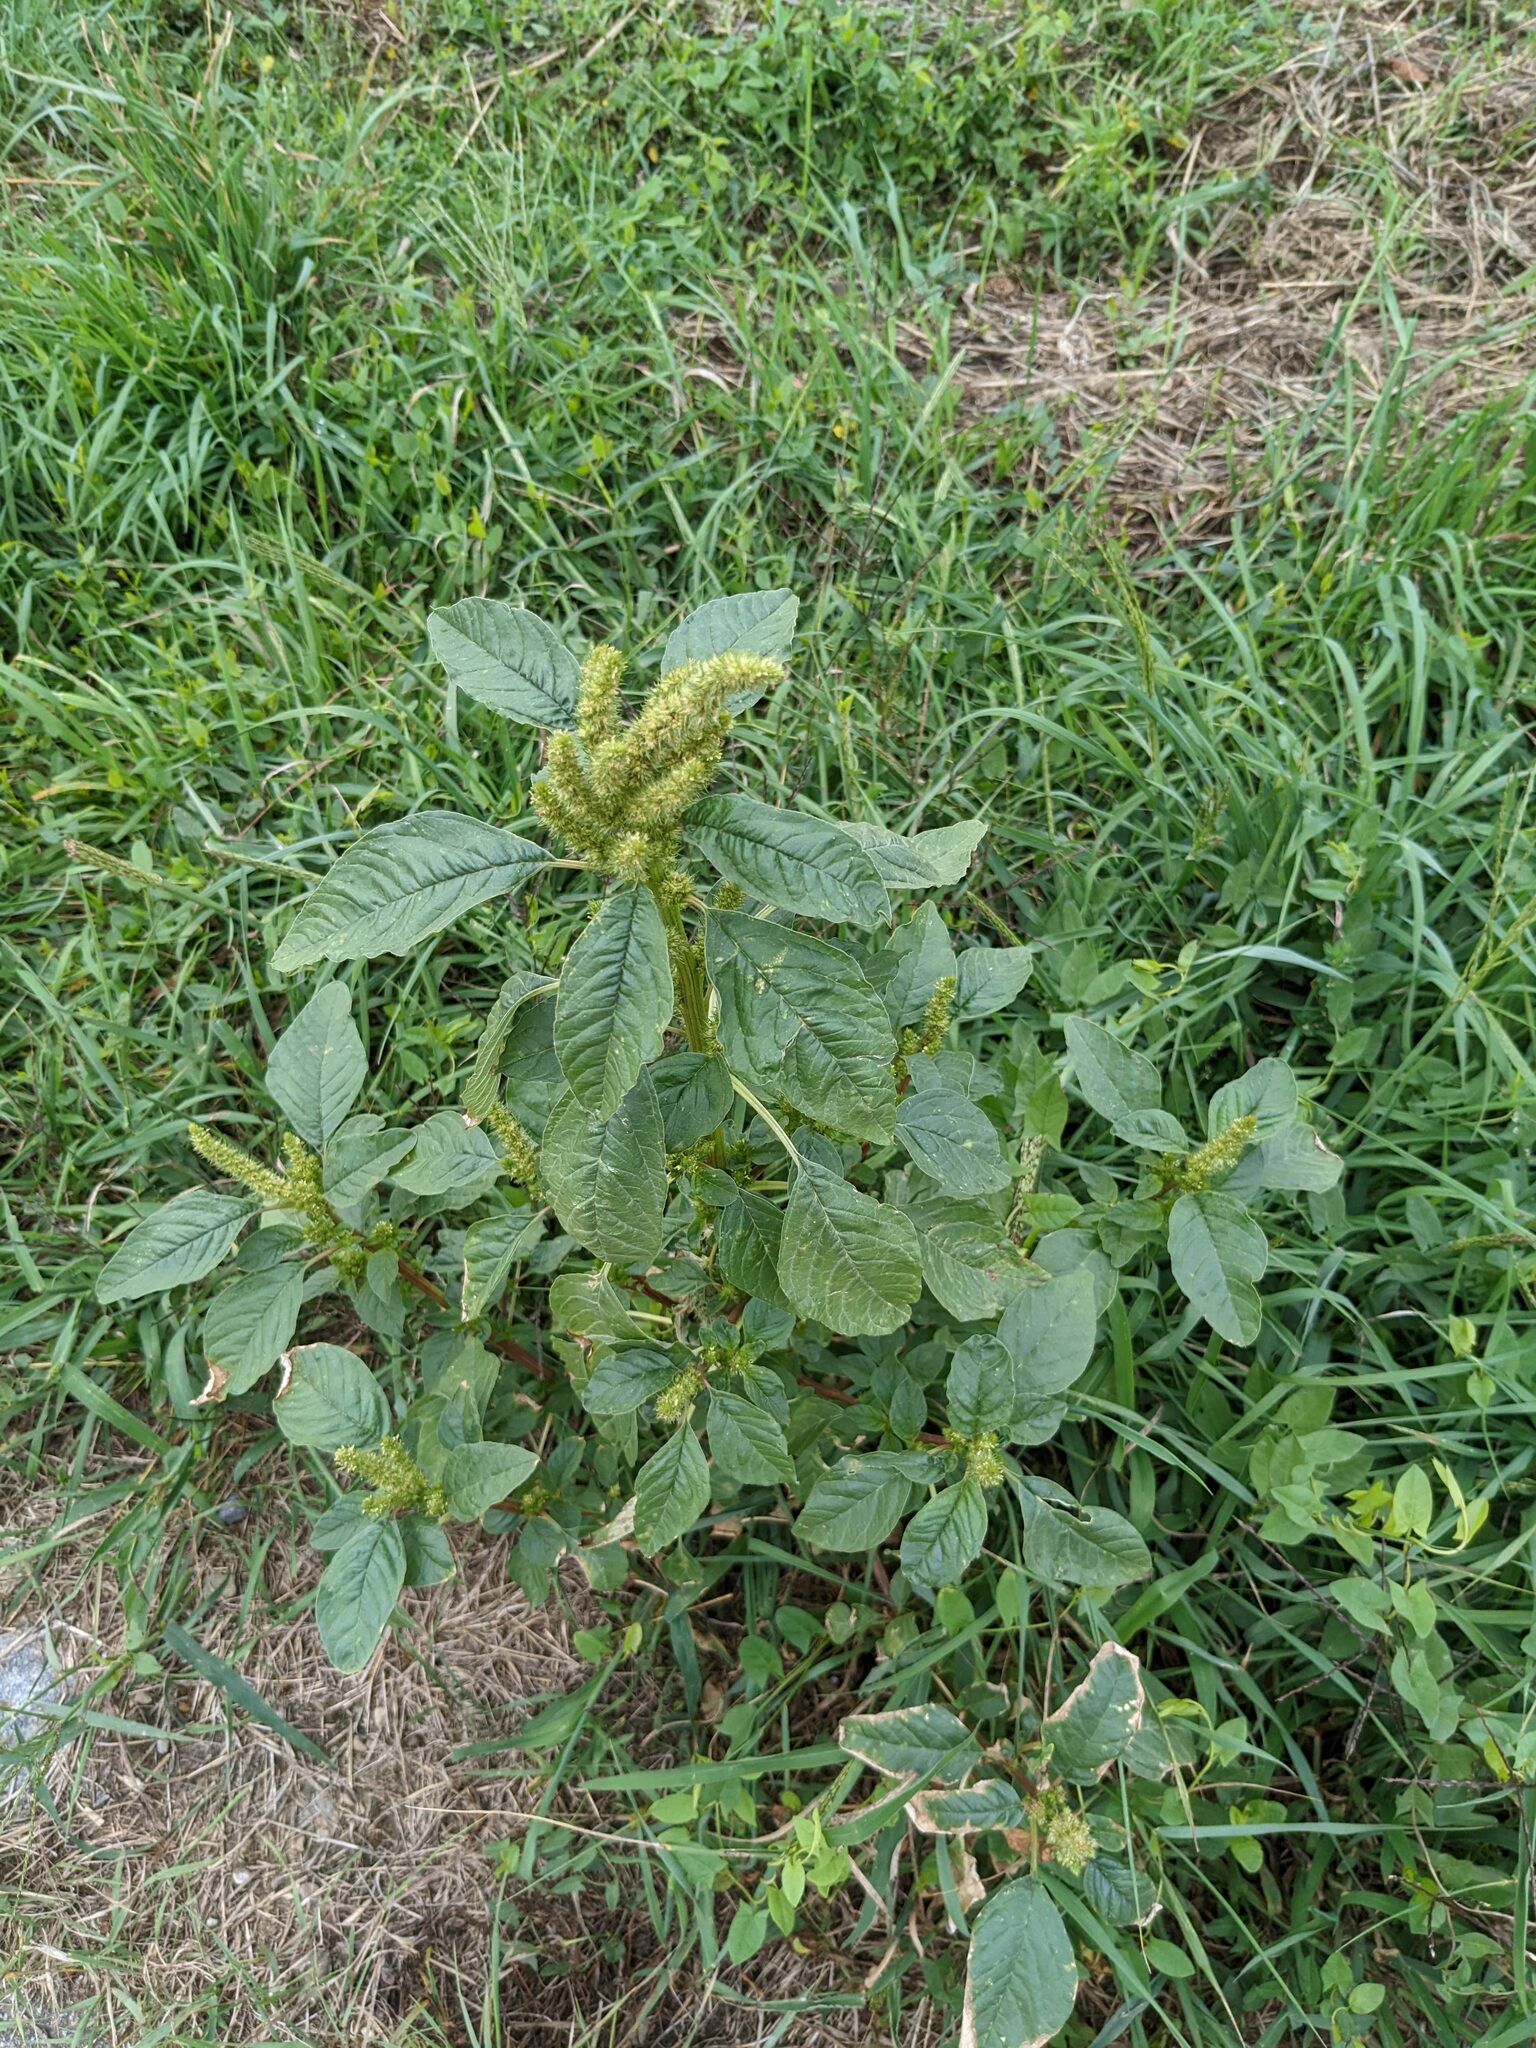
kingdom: Plantae
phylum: Tracheophyta
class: Magnoliopsida
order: Caryophyllales
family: Amaranthaceae
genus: Amaranthus
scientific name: Amaranthus retroflexus
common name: Redroot amaranth
